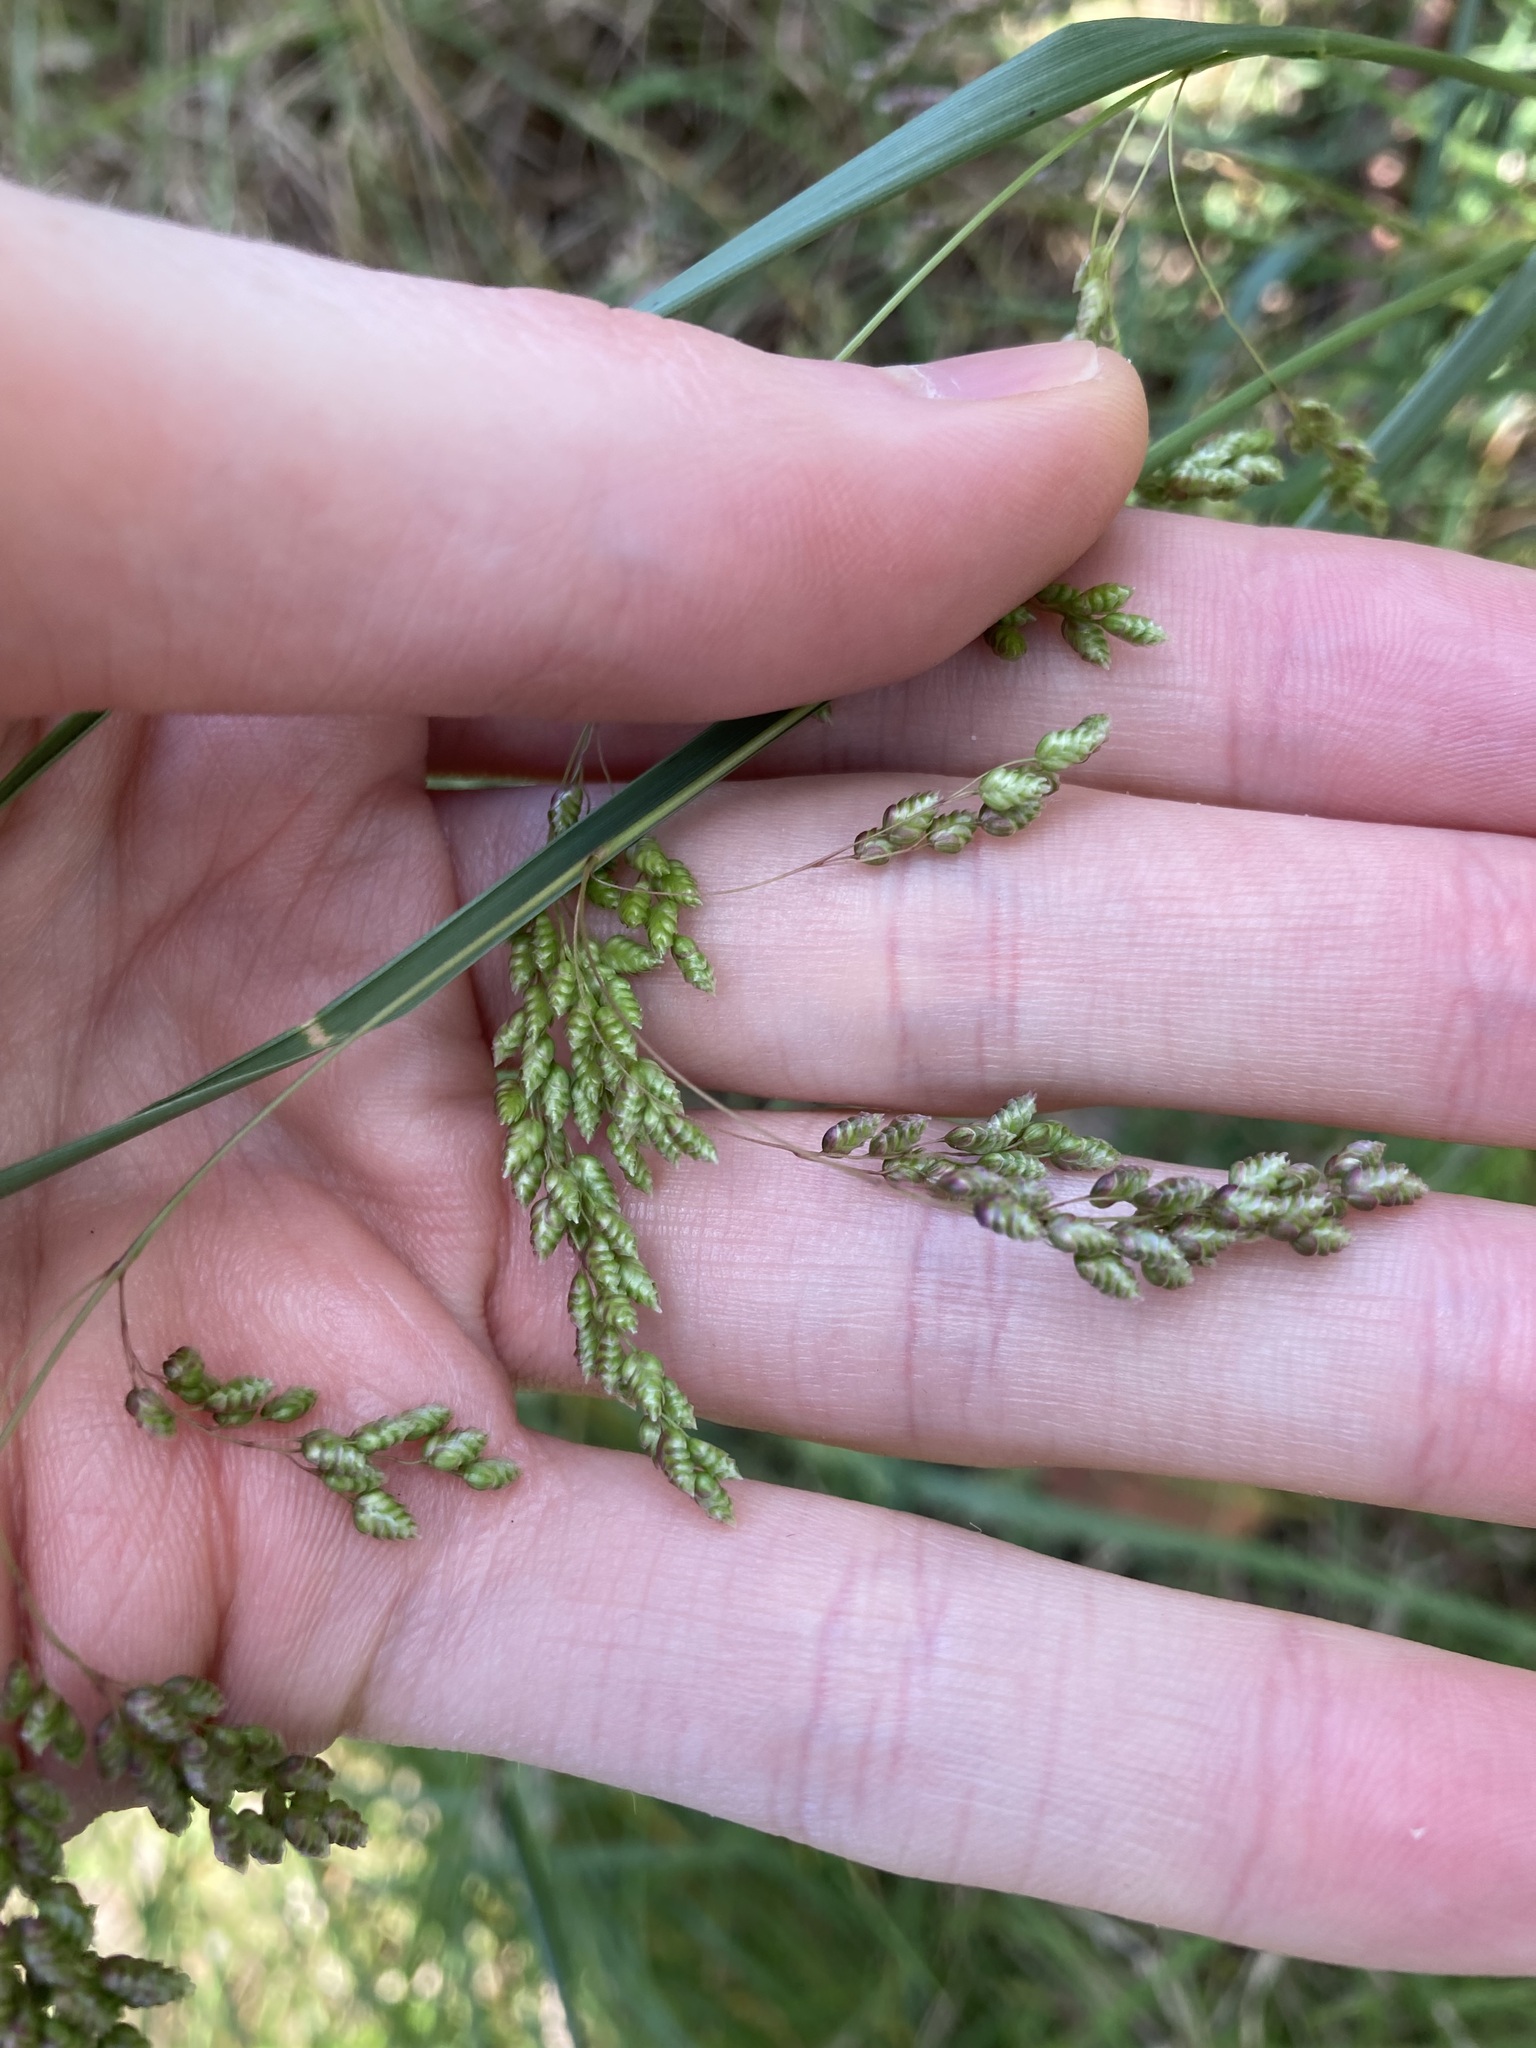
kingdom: Plantae
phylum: Tracheophyta
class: Liliopsida
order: Poales
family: Poaceae
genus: Chascolytrum
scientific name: Chascolytrum subaristatum
